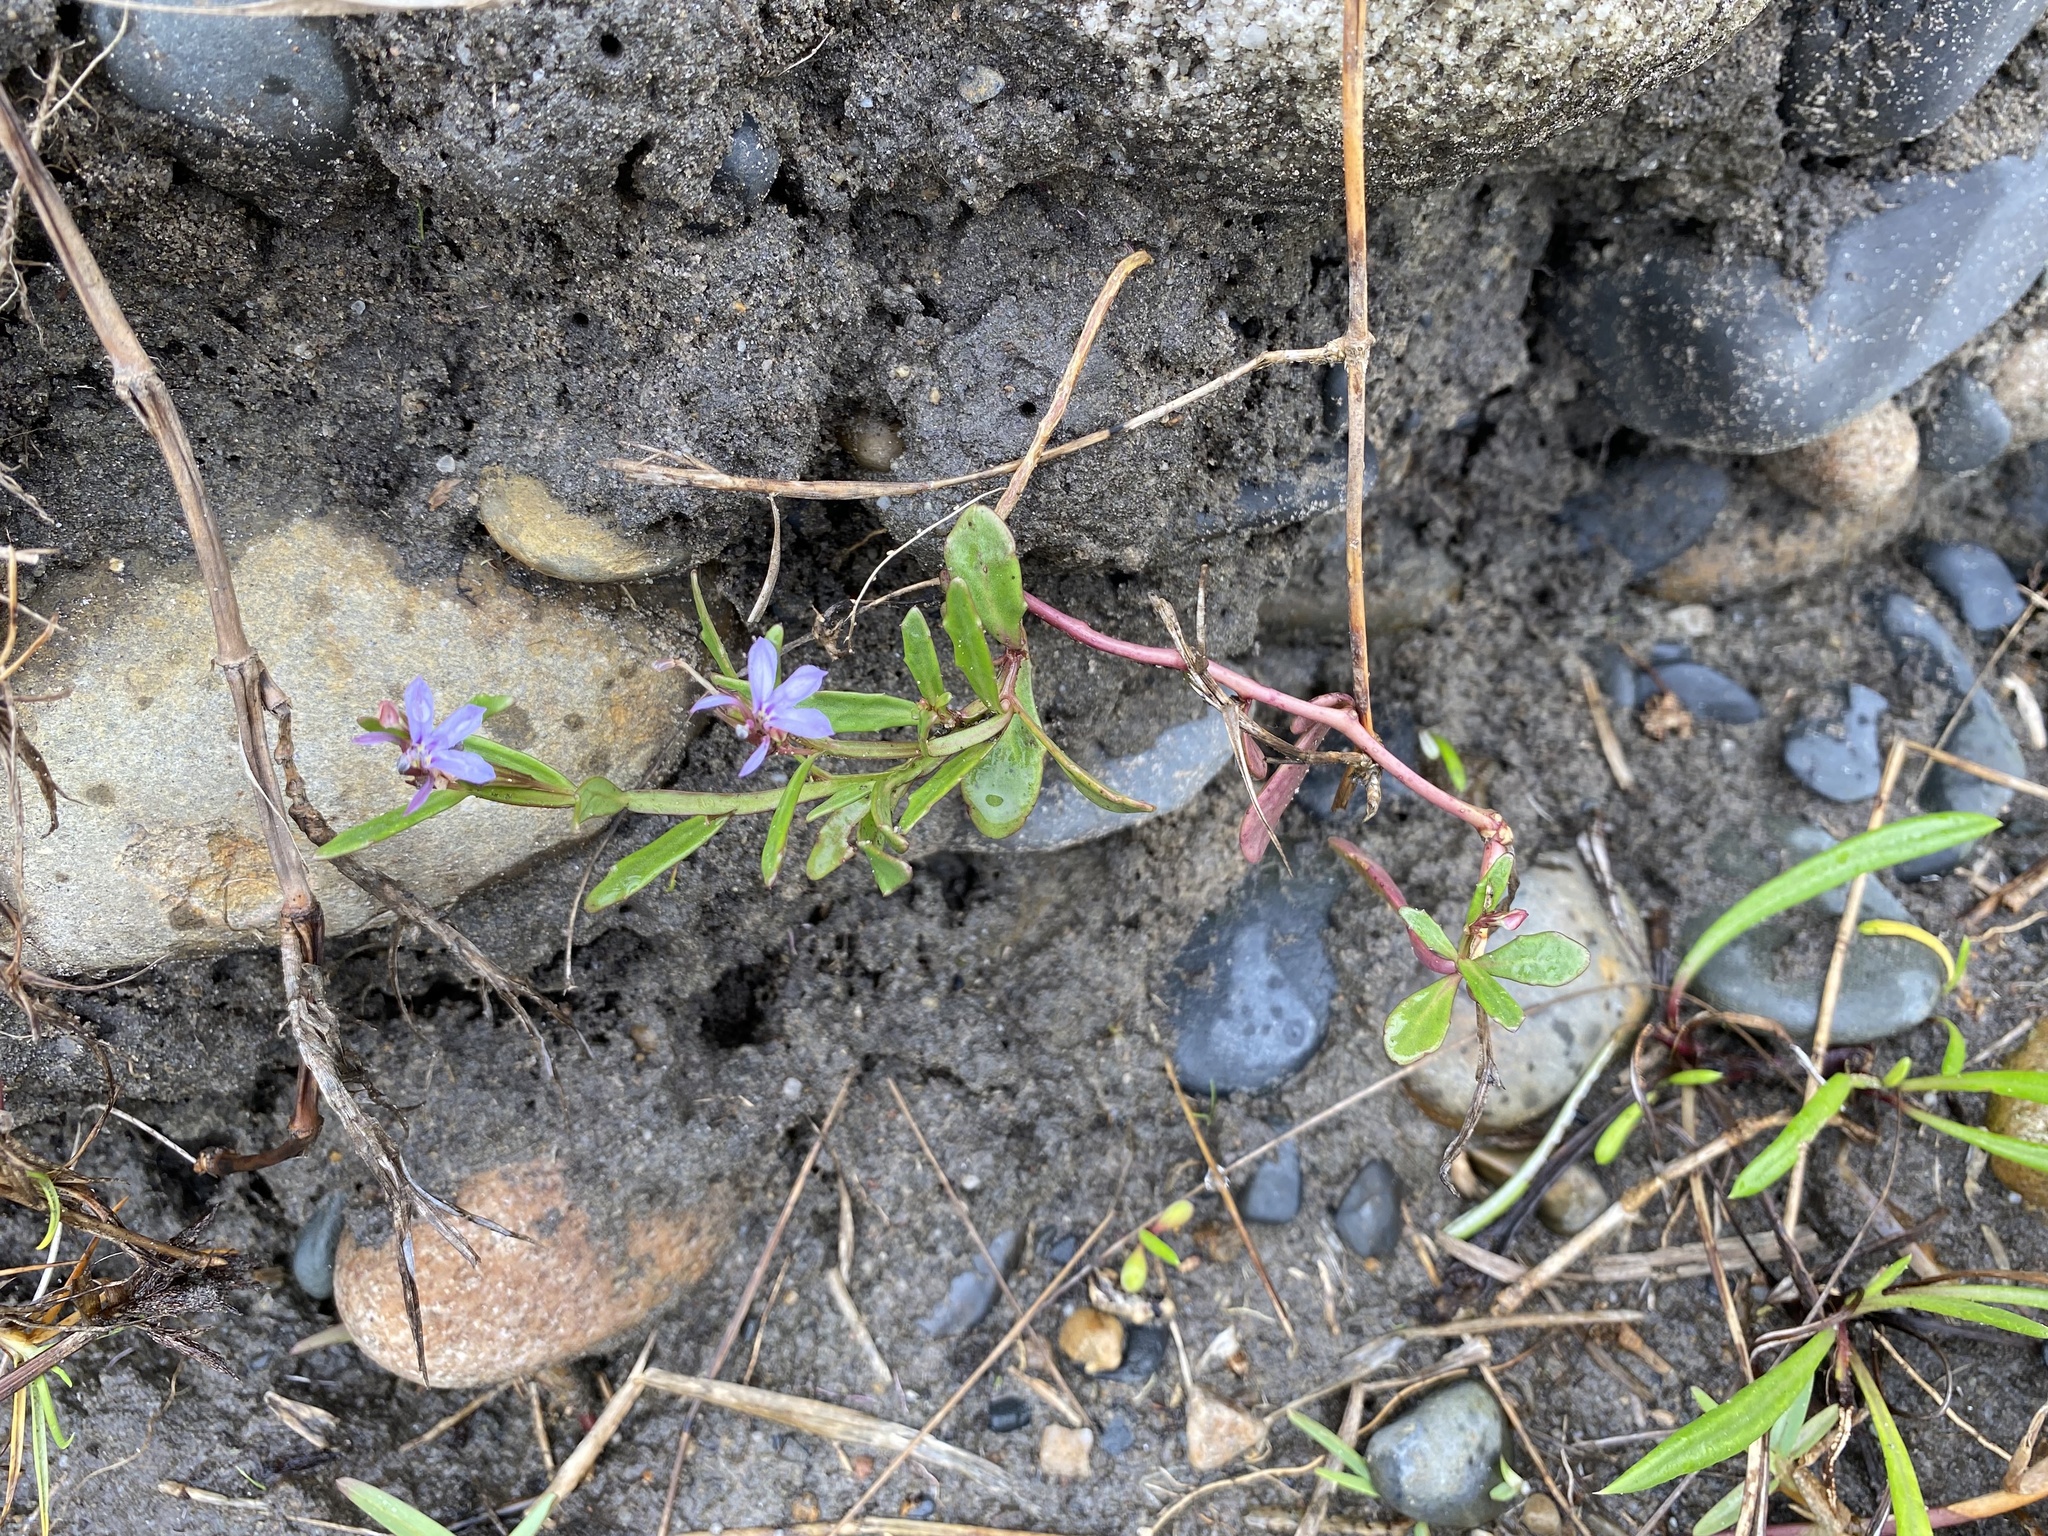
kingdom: Plantae
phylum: Tracheophyta
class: Magnoliopsida
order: Asterales
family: Campanulaceae
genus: Lobelia
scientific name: Lobelia anceps
